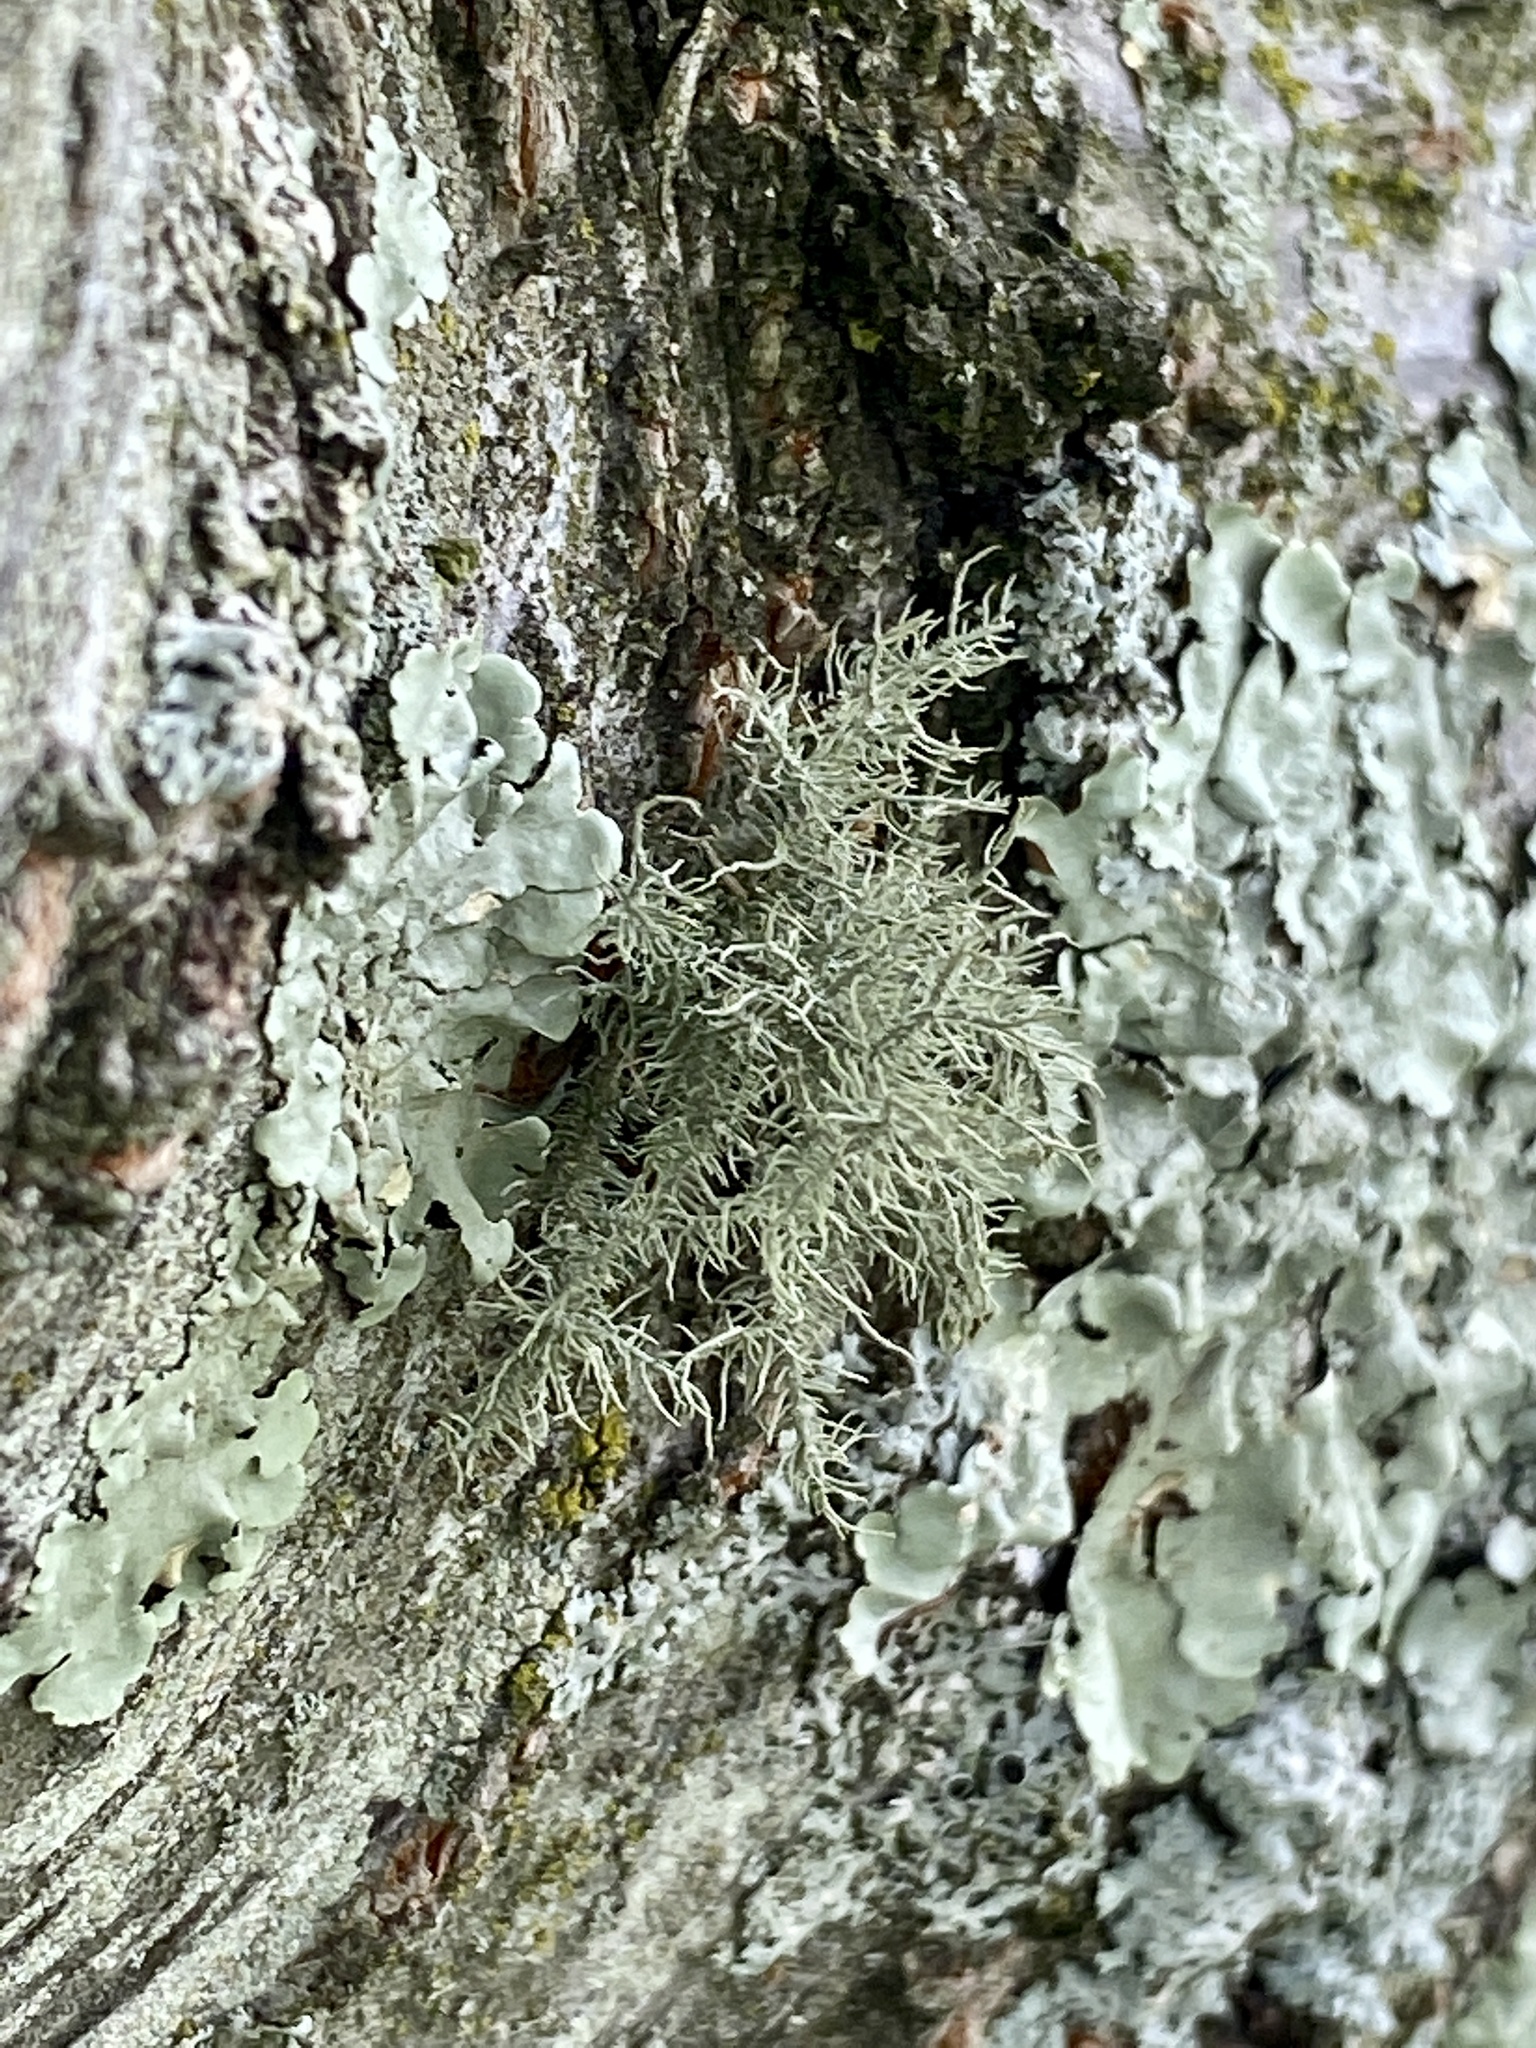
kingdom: Fungi
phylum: Ascomycota
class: Lecanoromycetes
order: Lecanorales
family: Parmeliaceae
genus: Usnea
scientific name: Usnea hirta
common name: Bristly beard lichen
